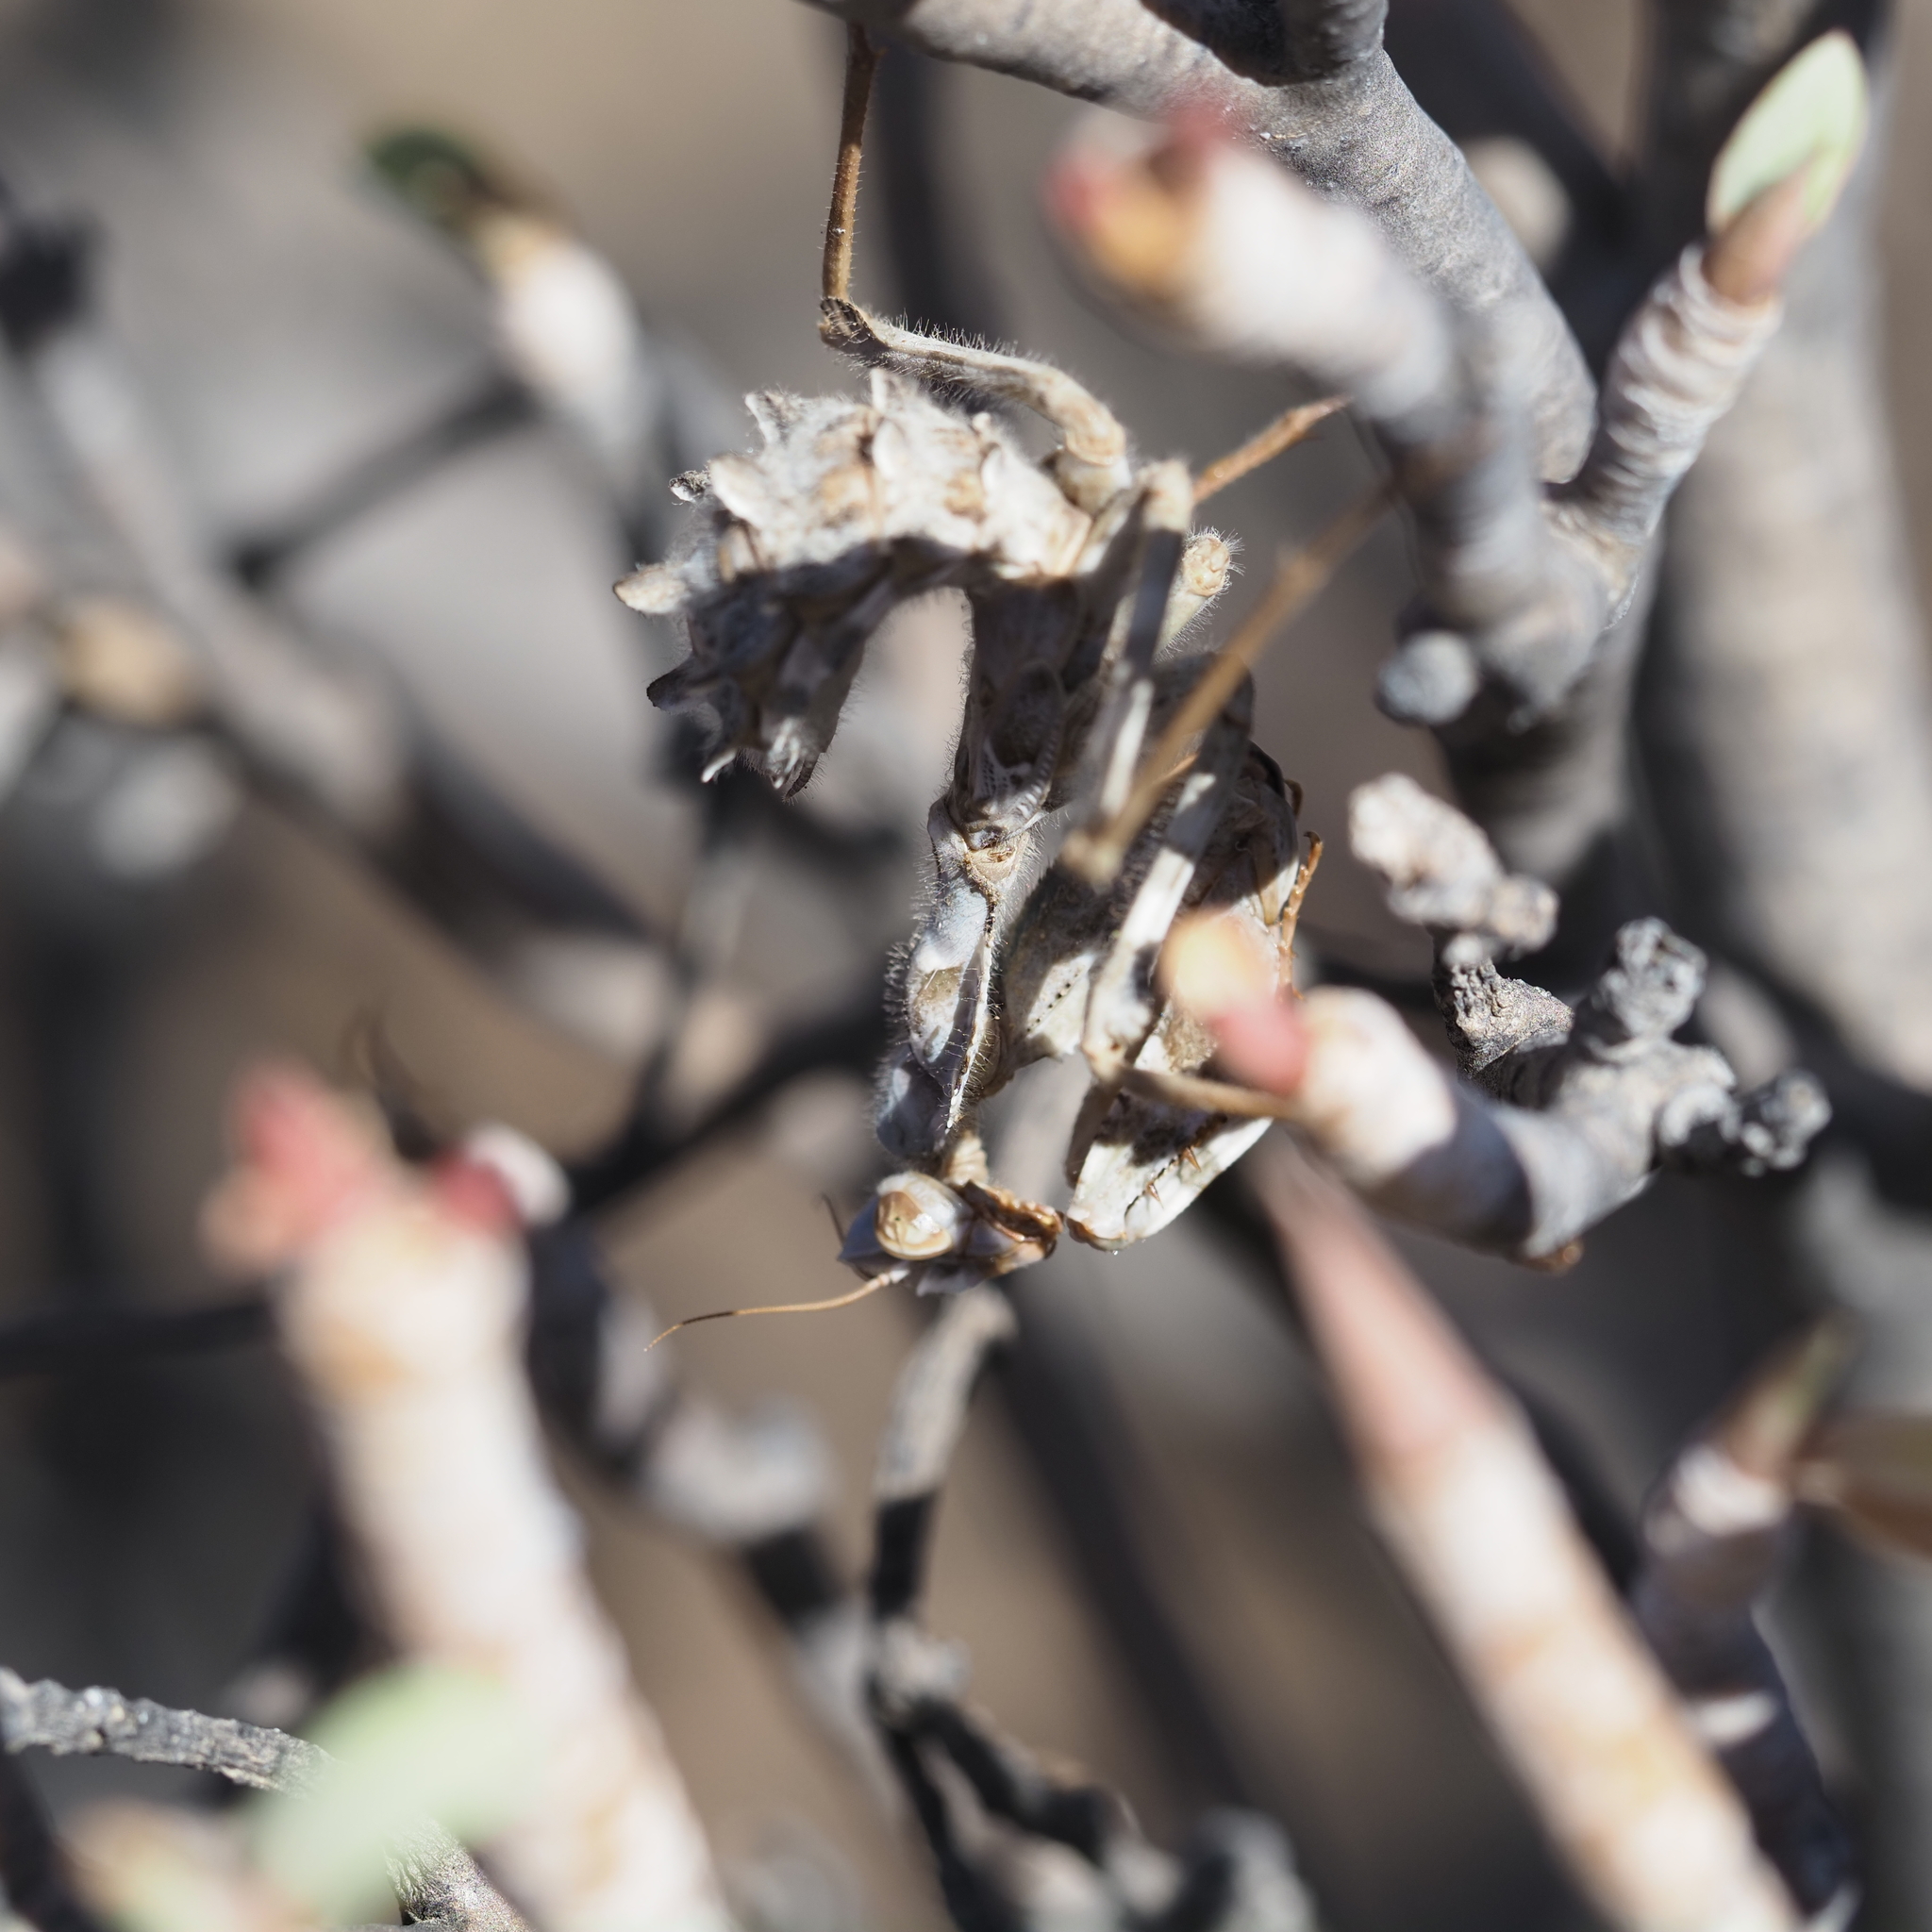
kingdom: Animalia
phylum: Arthropoda
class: Insecta
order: Mantodea
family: Empusidae
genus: Blepharopsis
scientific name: Blepharopsis mendica
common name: Devil's flower mantis
